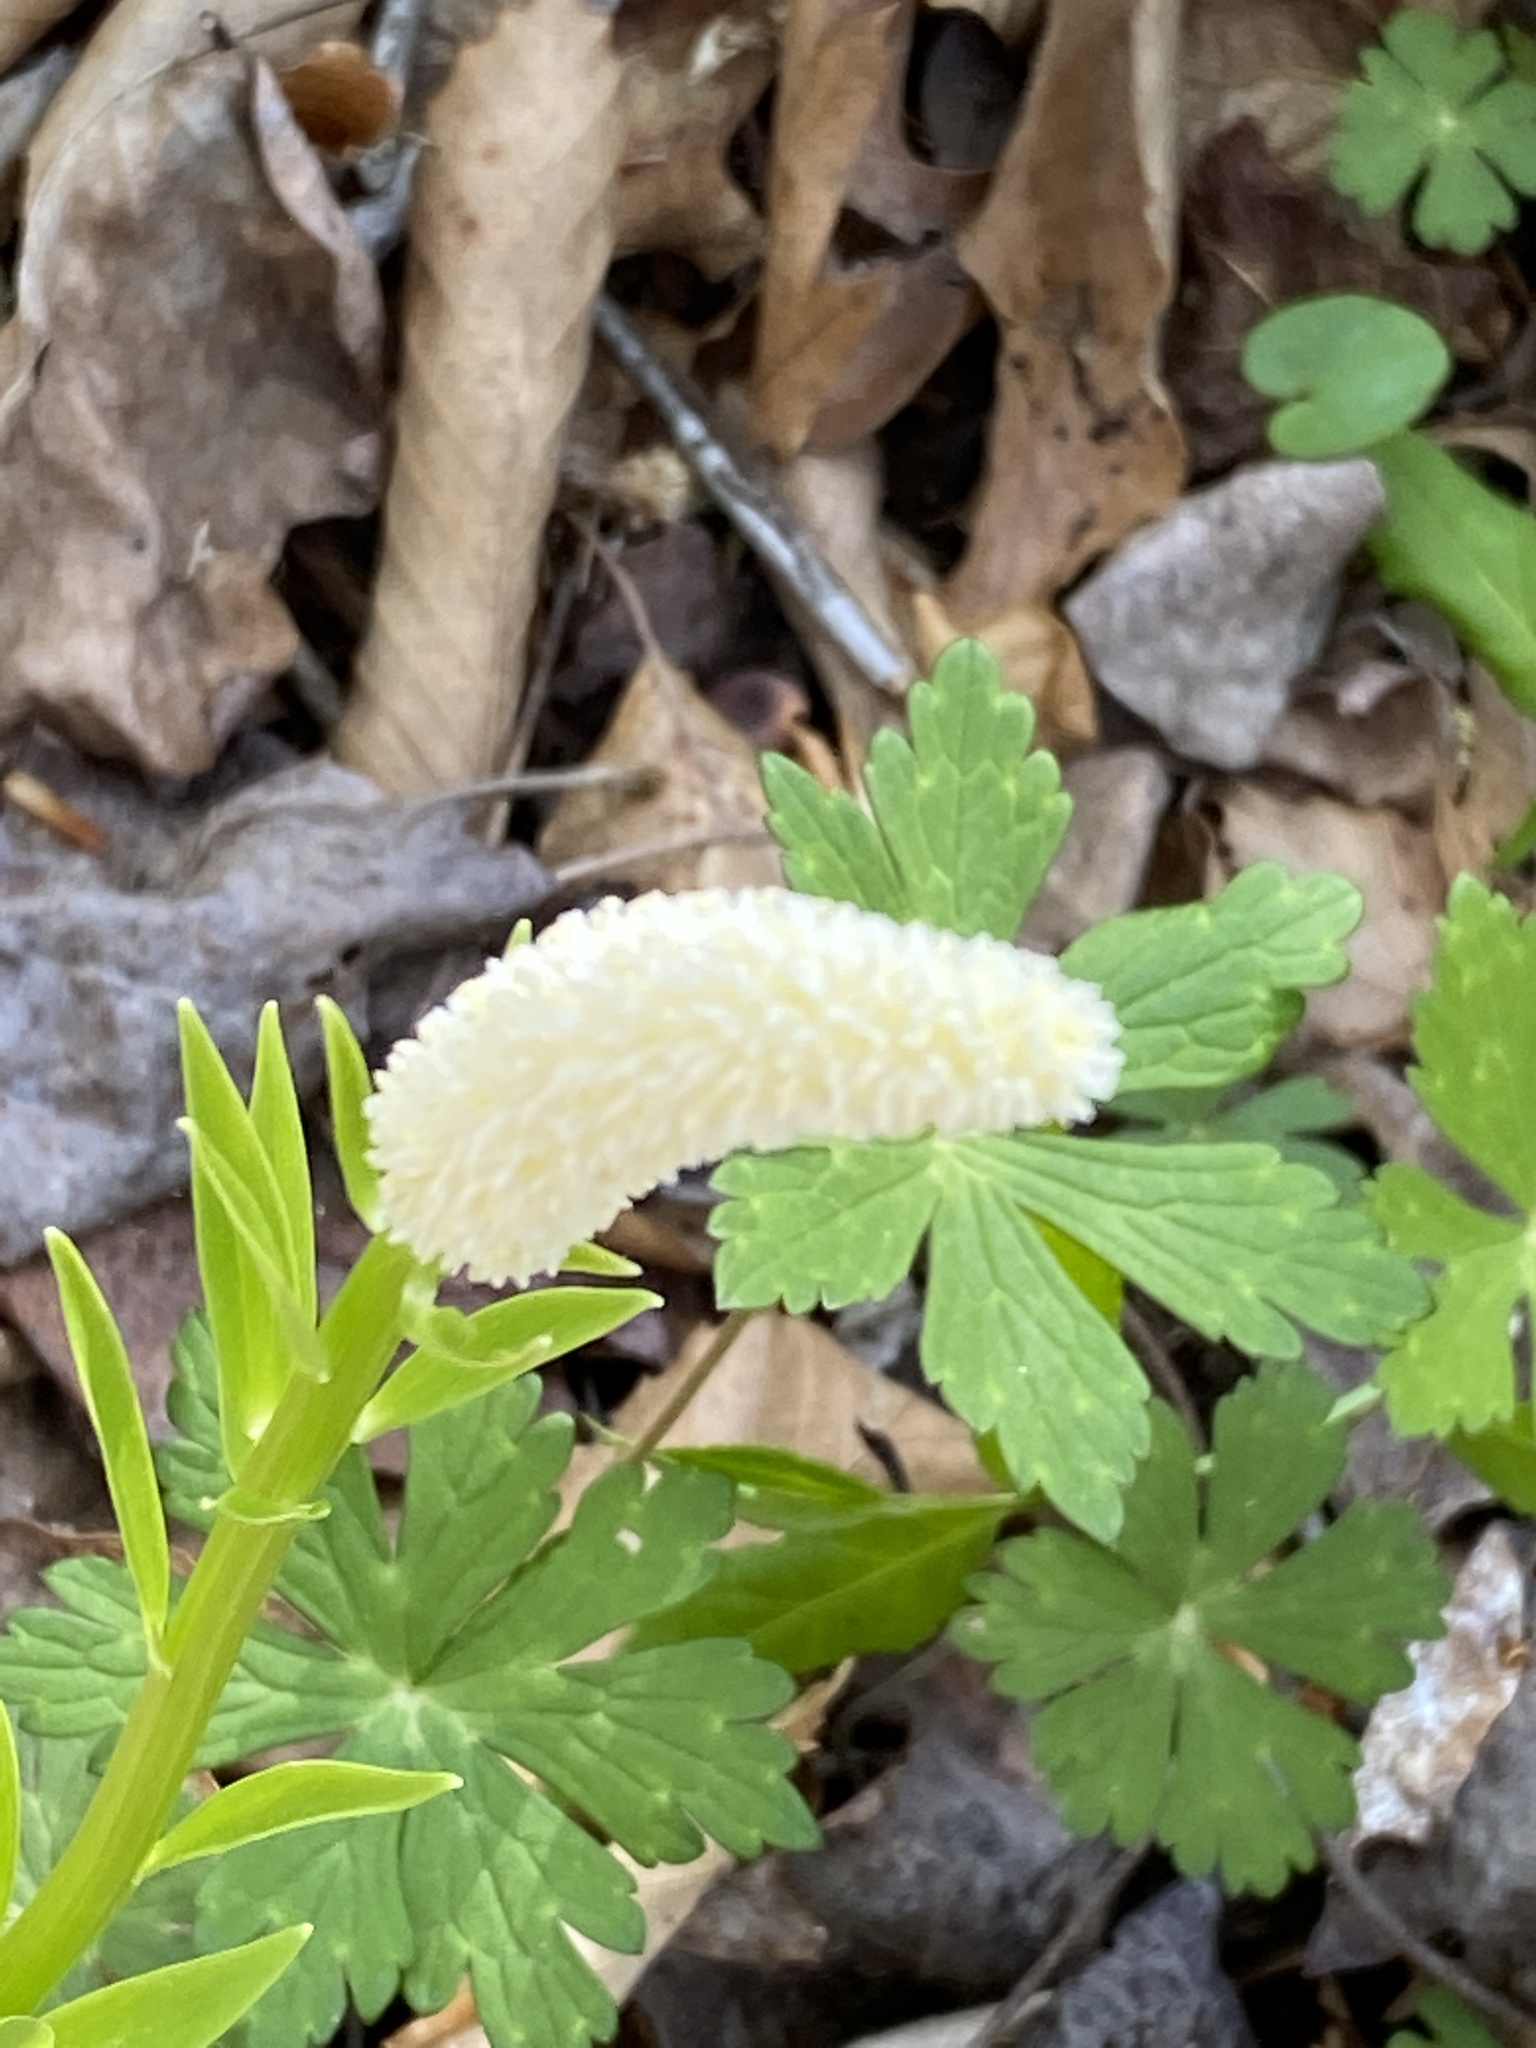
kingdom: Plantae
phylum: Tracheophyta
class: Liliopsida
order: Liliales
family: Melanthiaceae
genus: Chamaelirium
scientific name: Chamaelirium luteum
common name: Fairy-wand
